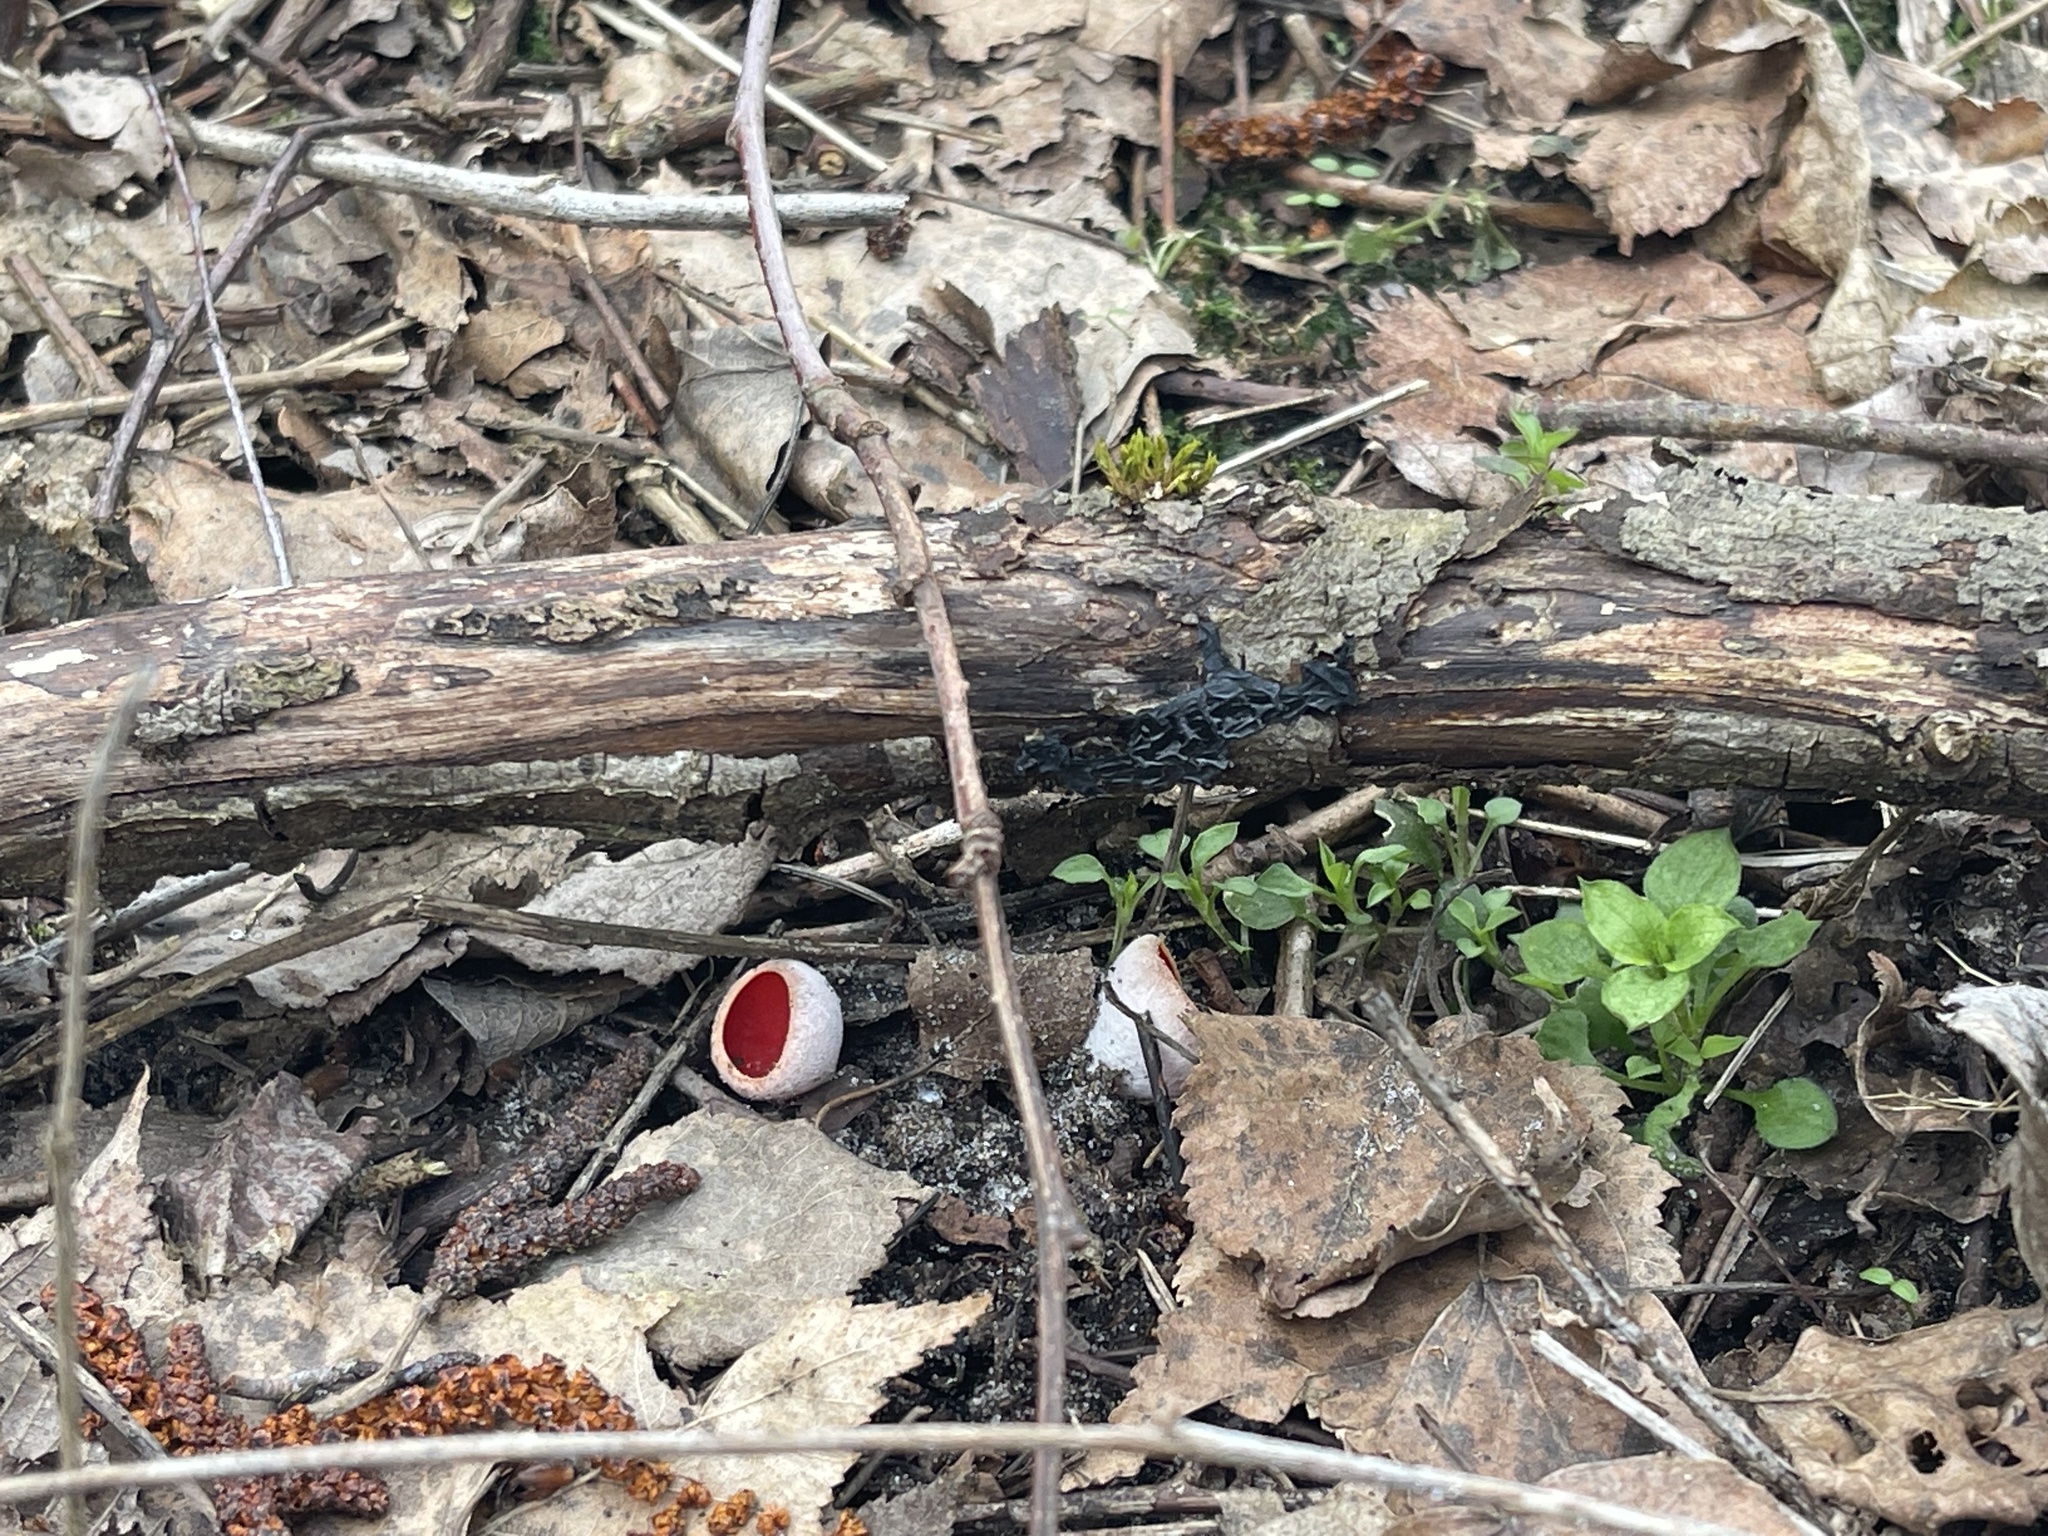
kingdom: Fungi
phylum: Ascomycota
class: Pezizomycetes
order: Pezizales
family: Sarcoscyphaceae
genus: Sarcoscypha
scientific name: Sarcoscypha
